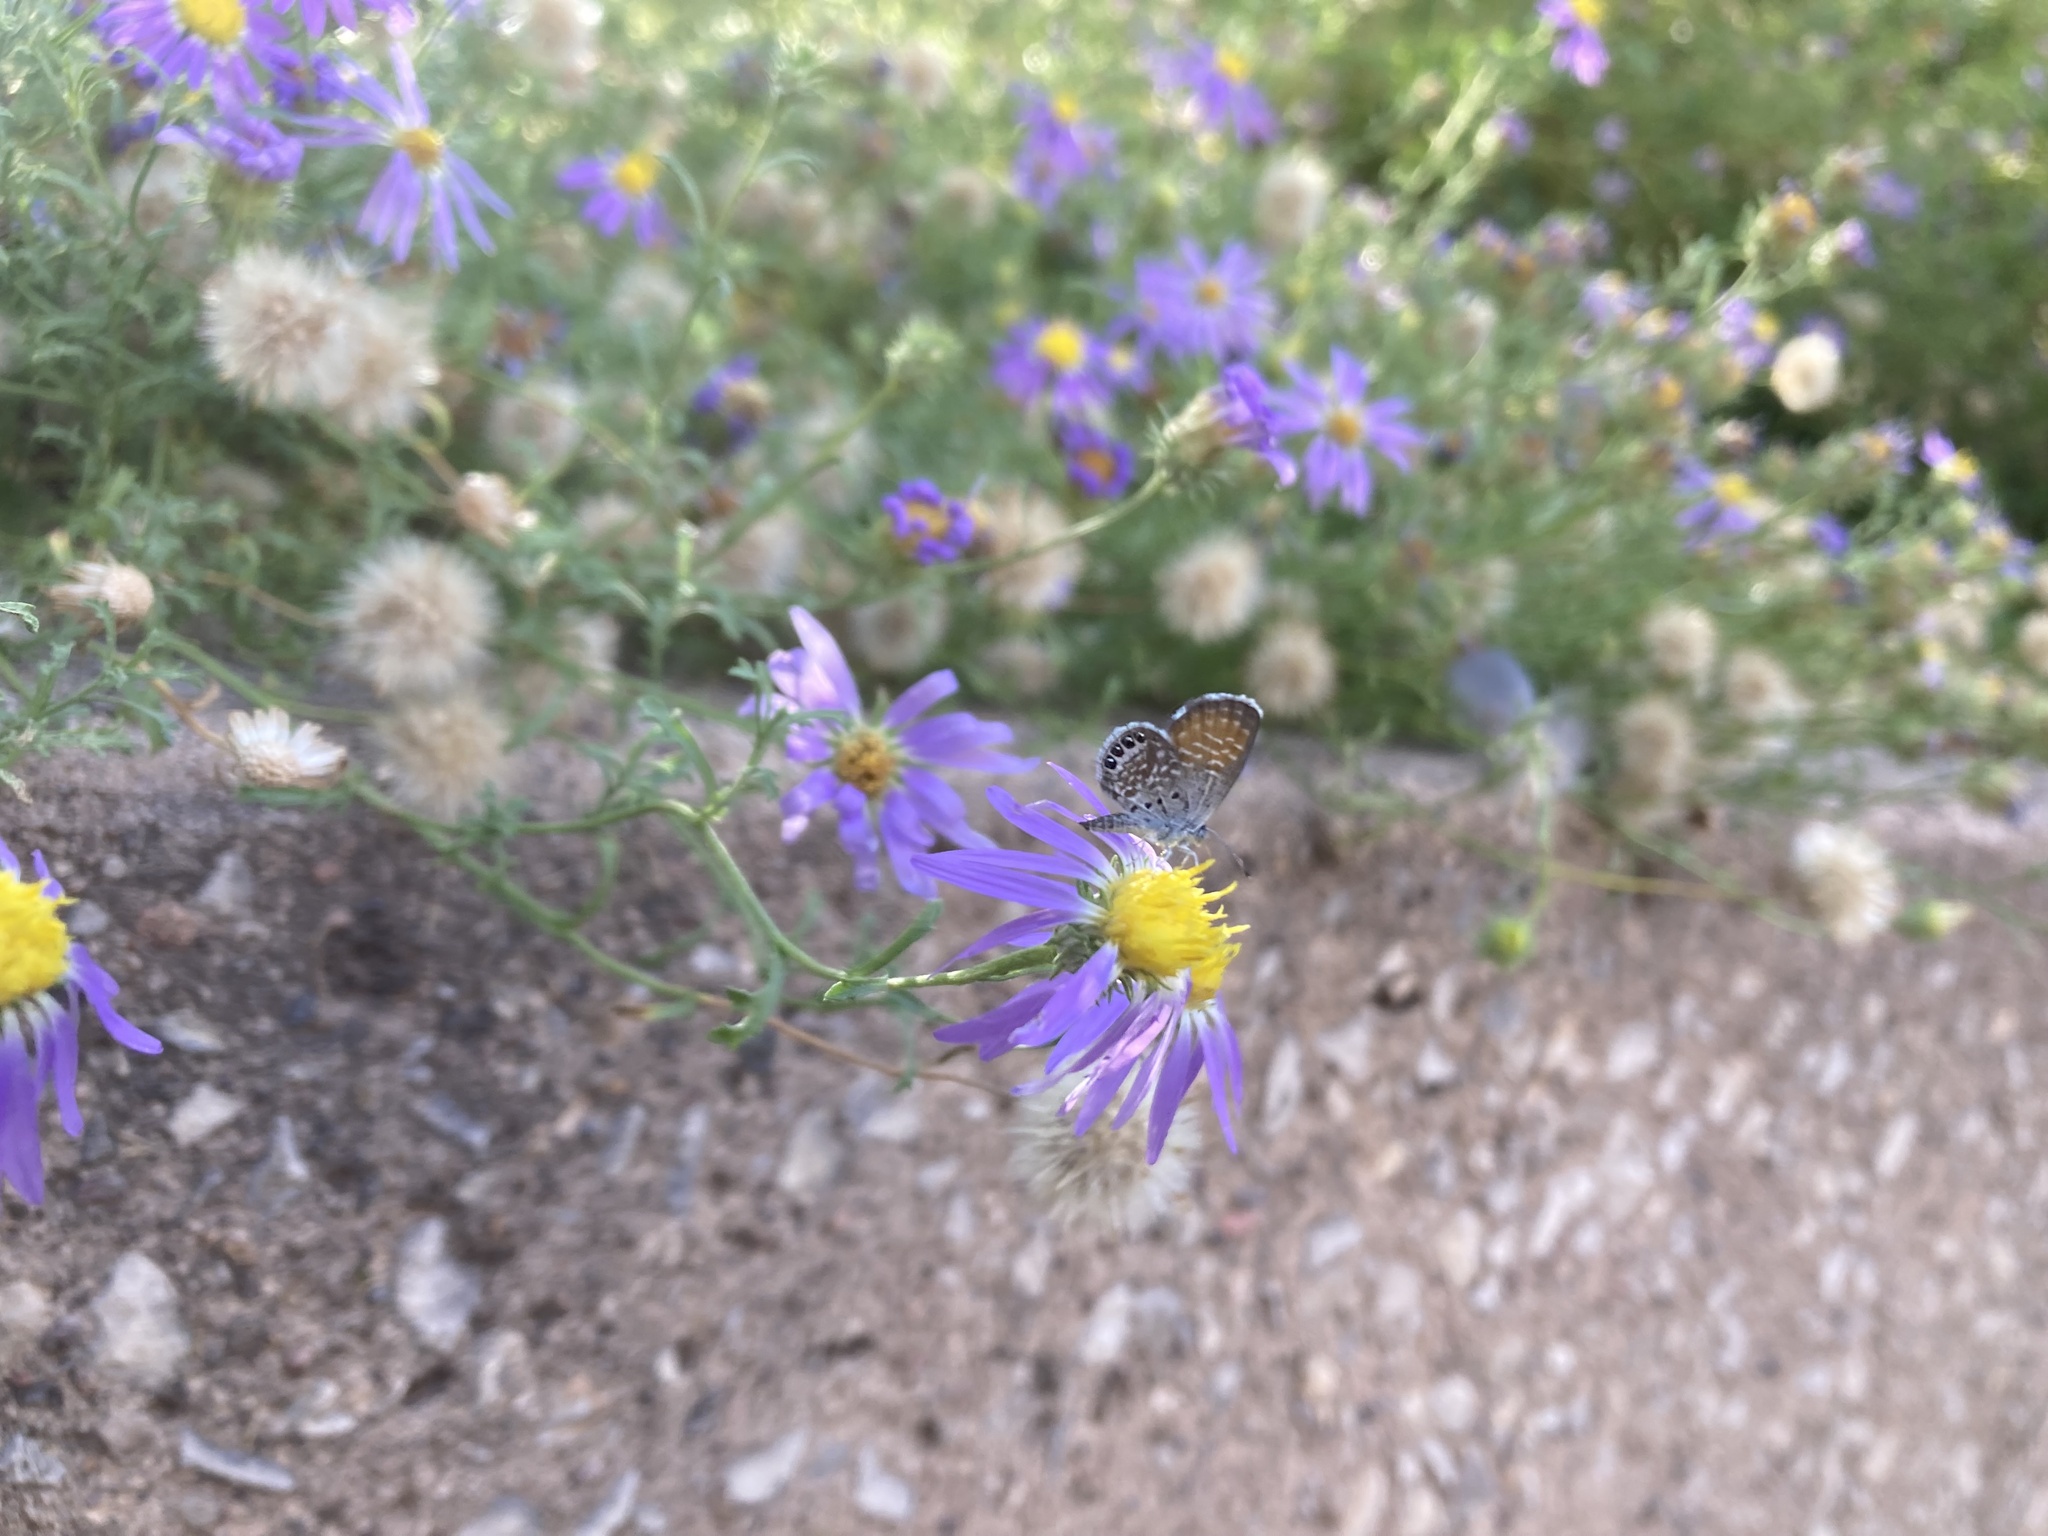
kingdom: Animalia
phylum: Arthropoda
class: Insecta
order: Lepidoptera
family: Lycaenidae
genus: Brephidium
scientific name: Brephidium exilis
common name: Pygmy blue
